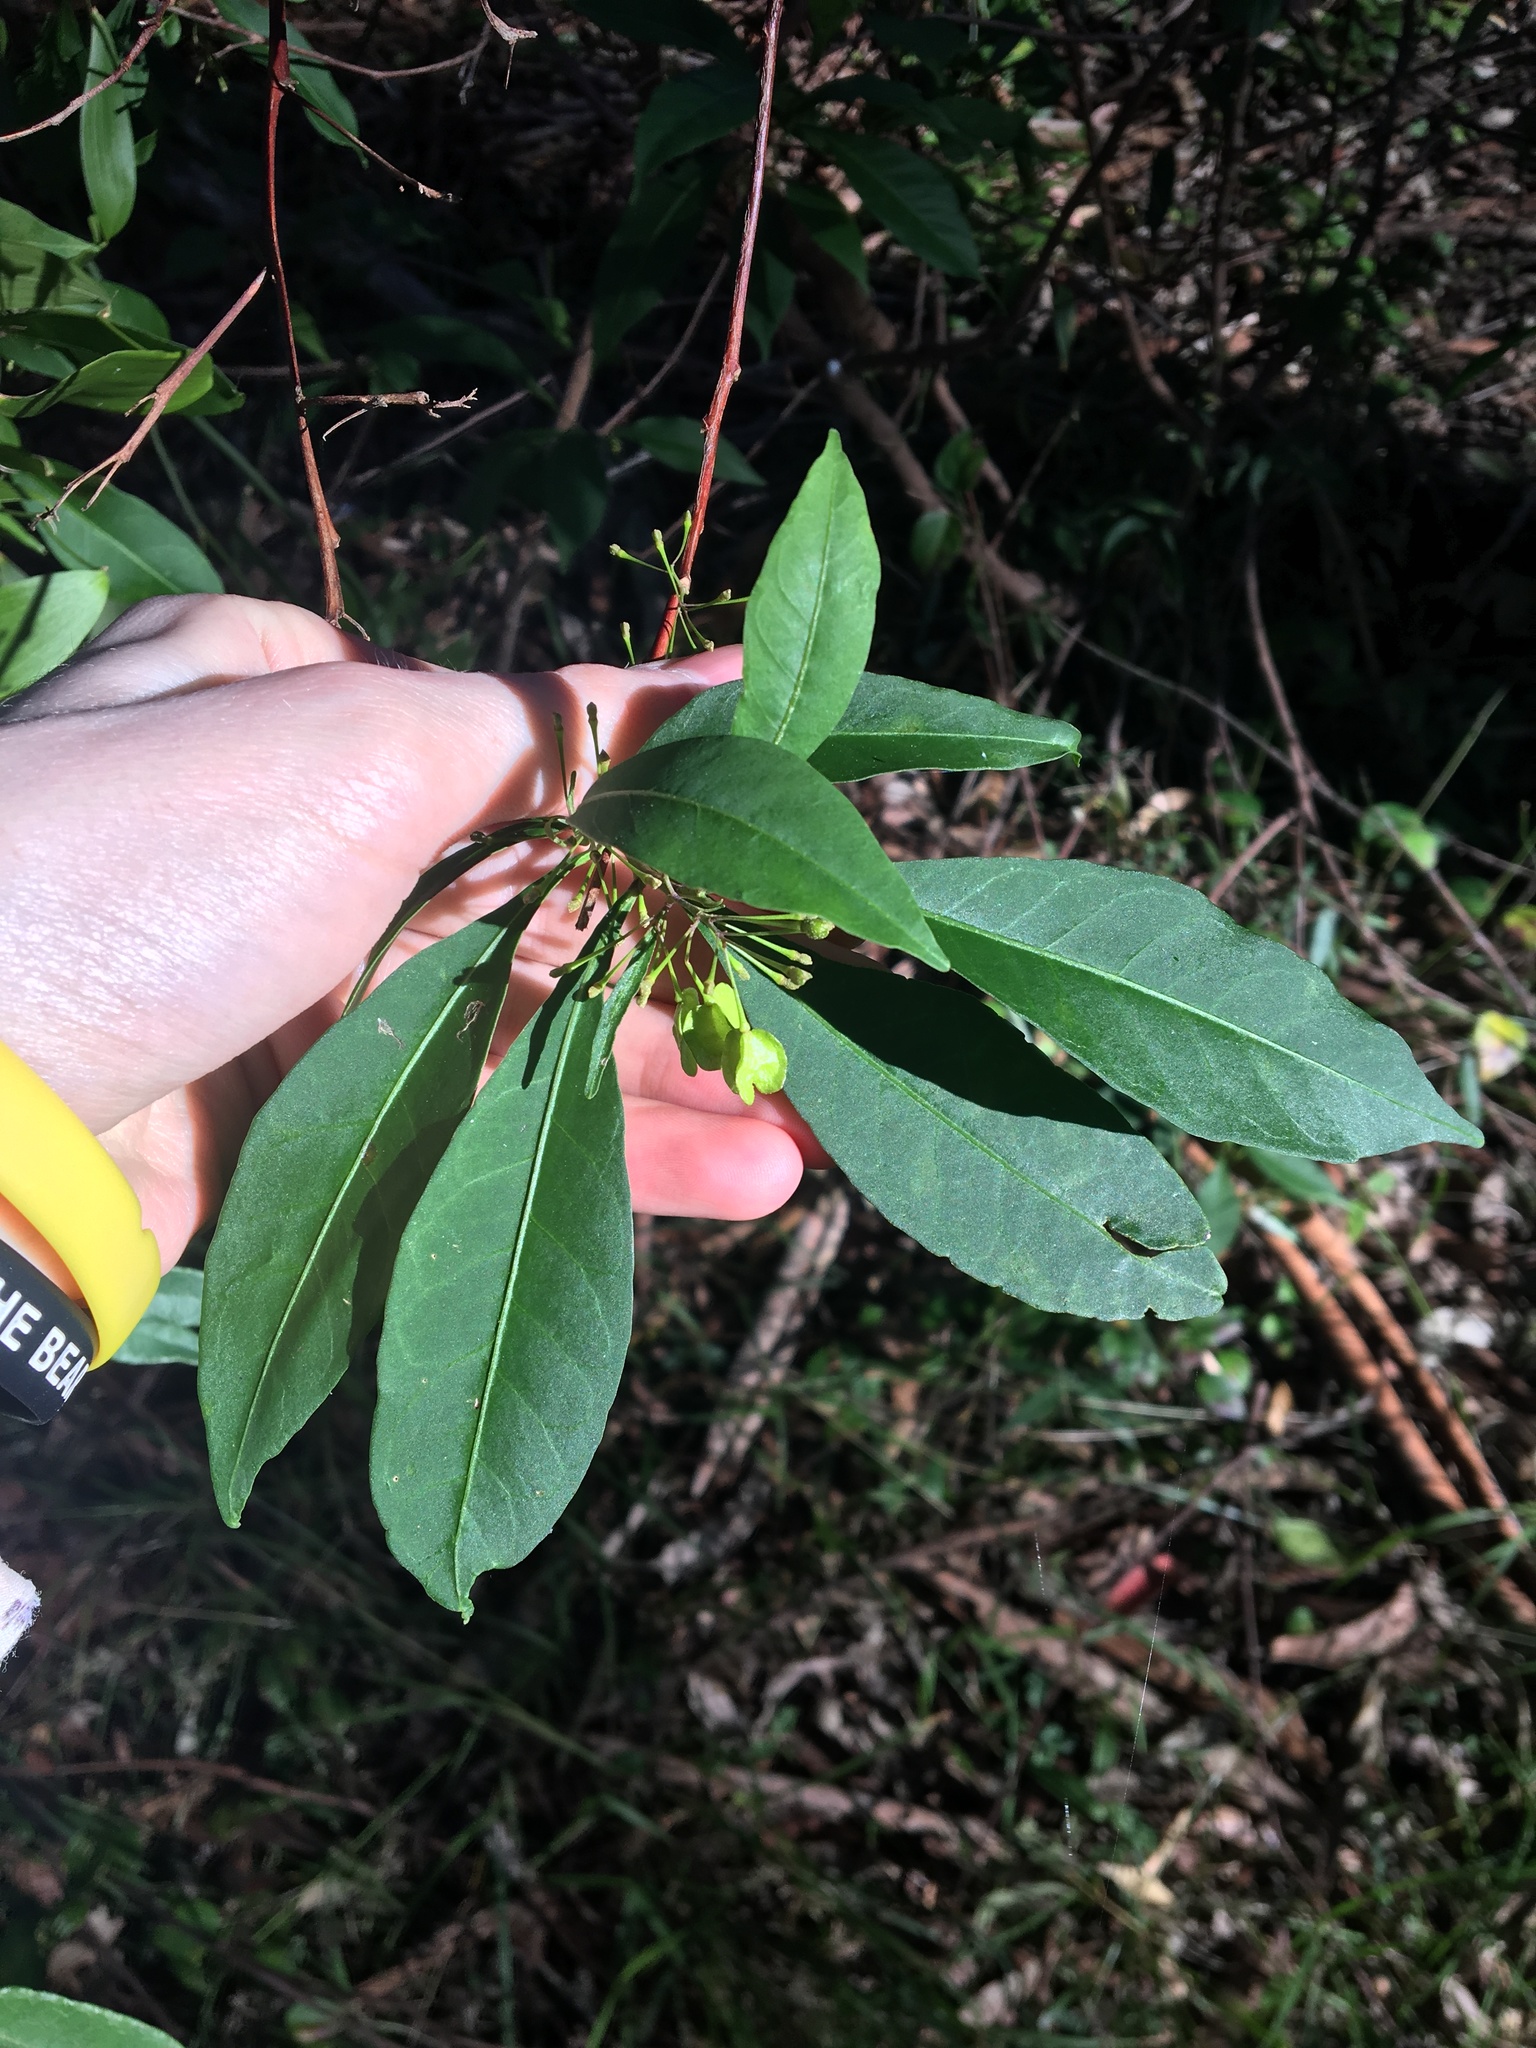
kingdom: Plantae
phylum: Tracheophyta
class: Magnoliopsida
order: Sapindales
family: Sapindaceae
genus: Dodonaea
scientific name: Dodonaea triquetra
